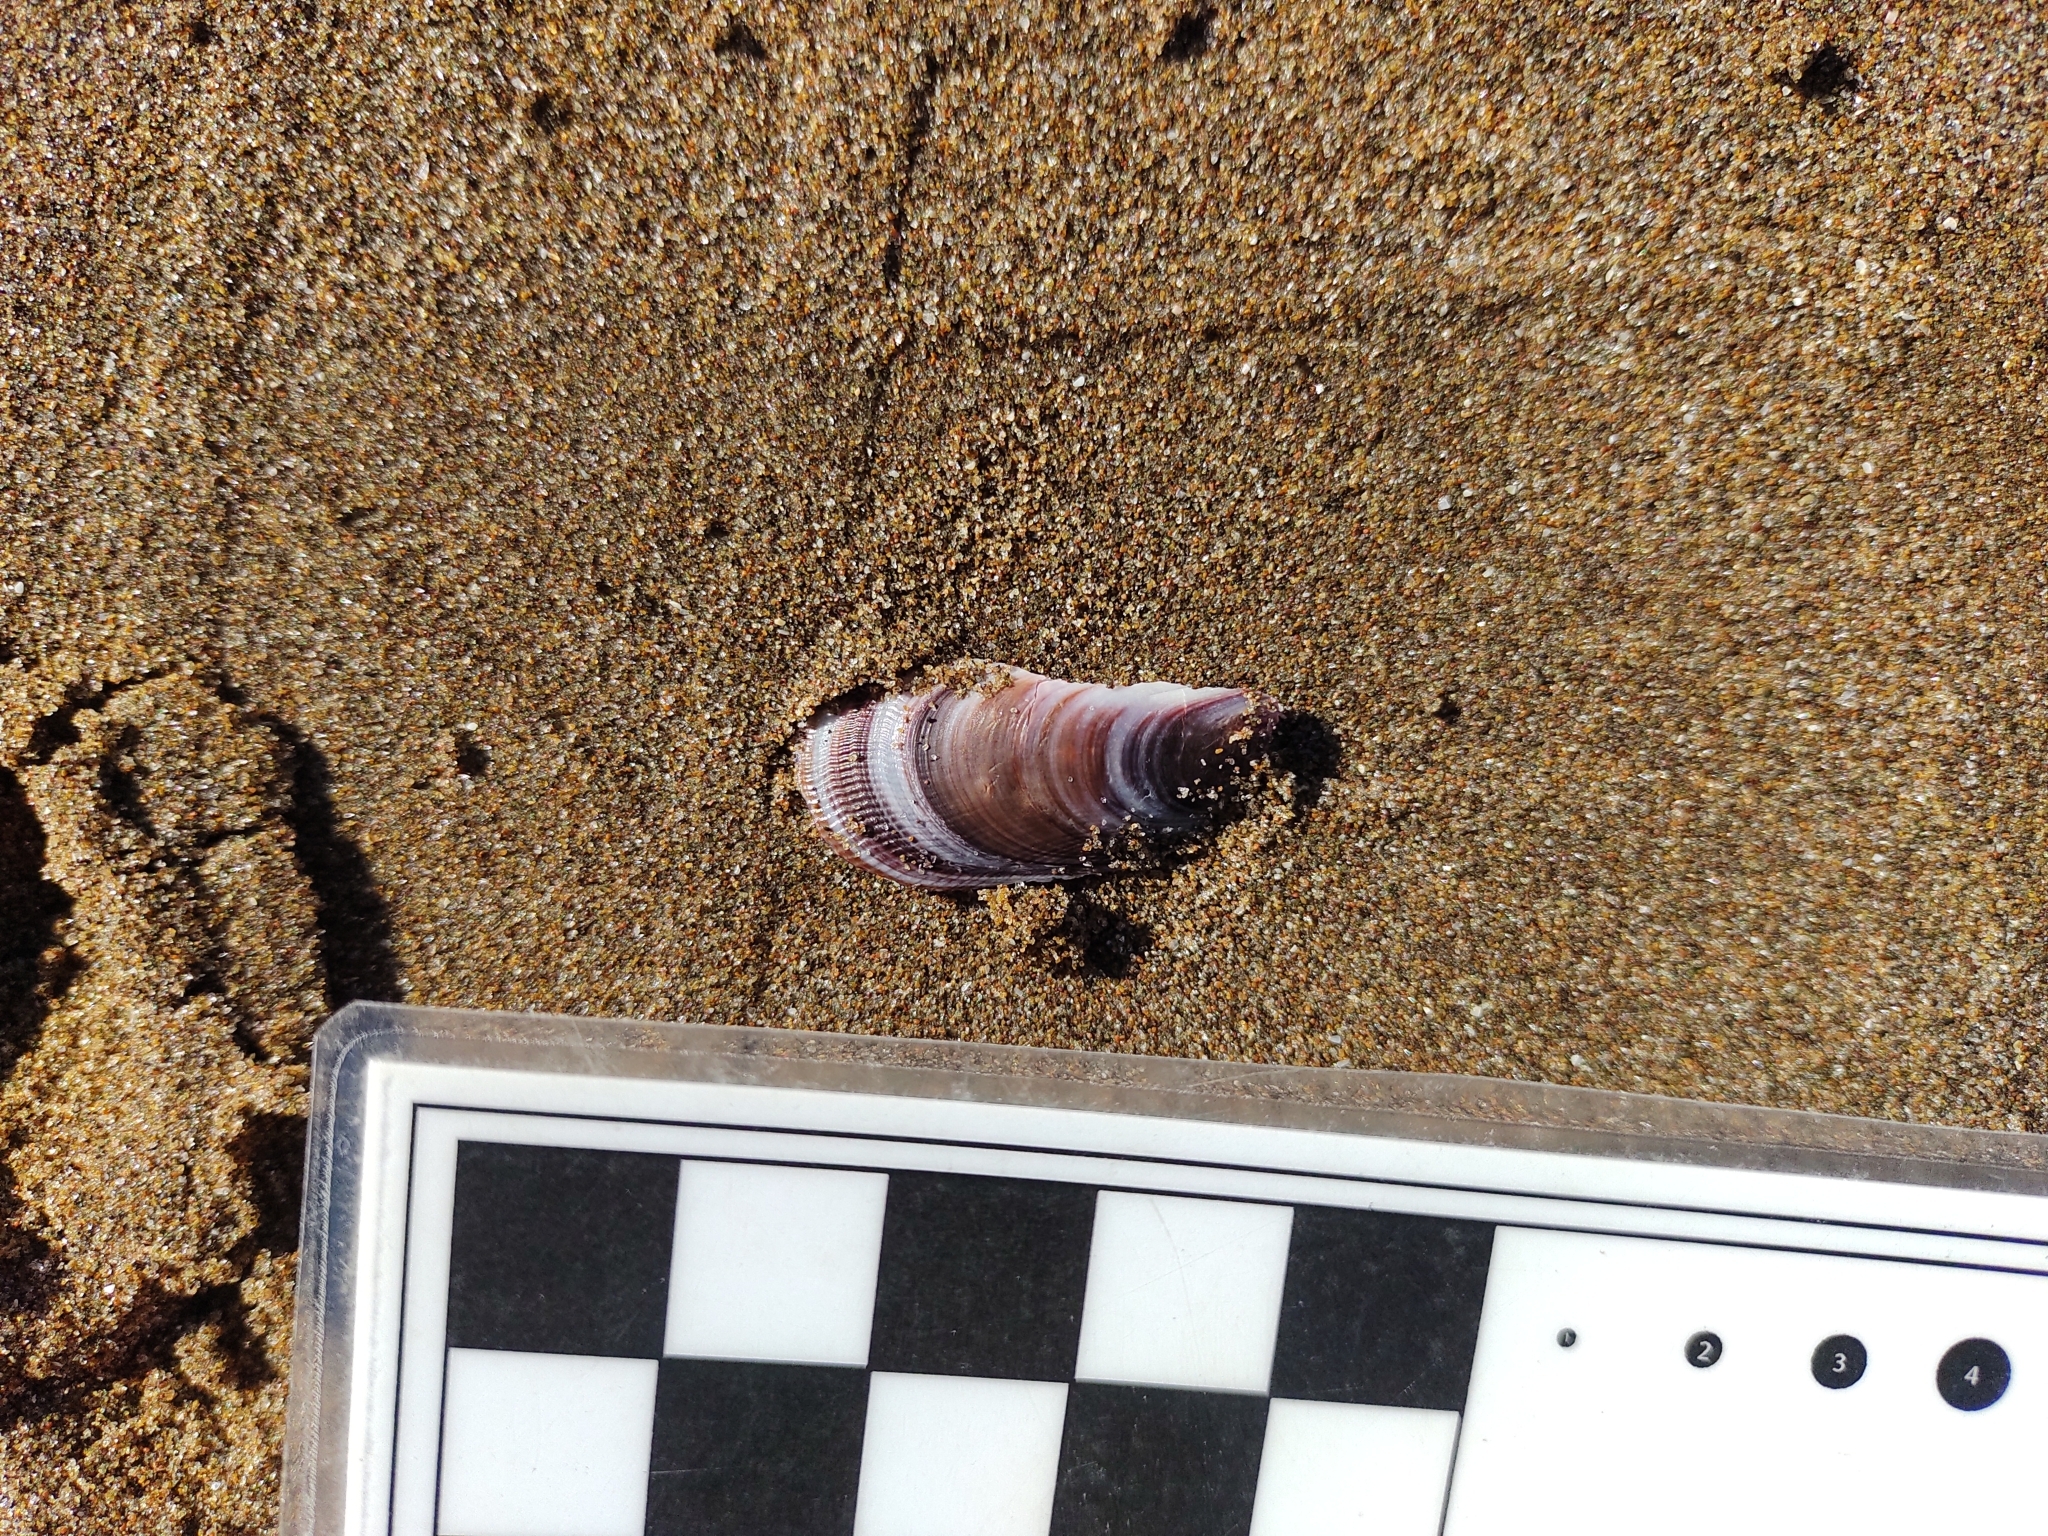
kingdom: Animalia
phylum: Mollusca
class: Bivalvia
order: Mytilida
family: Mytilidae
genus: Brachidontes
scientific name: Brachidontes rodriguezii
